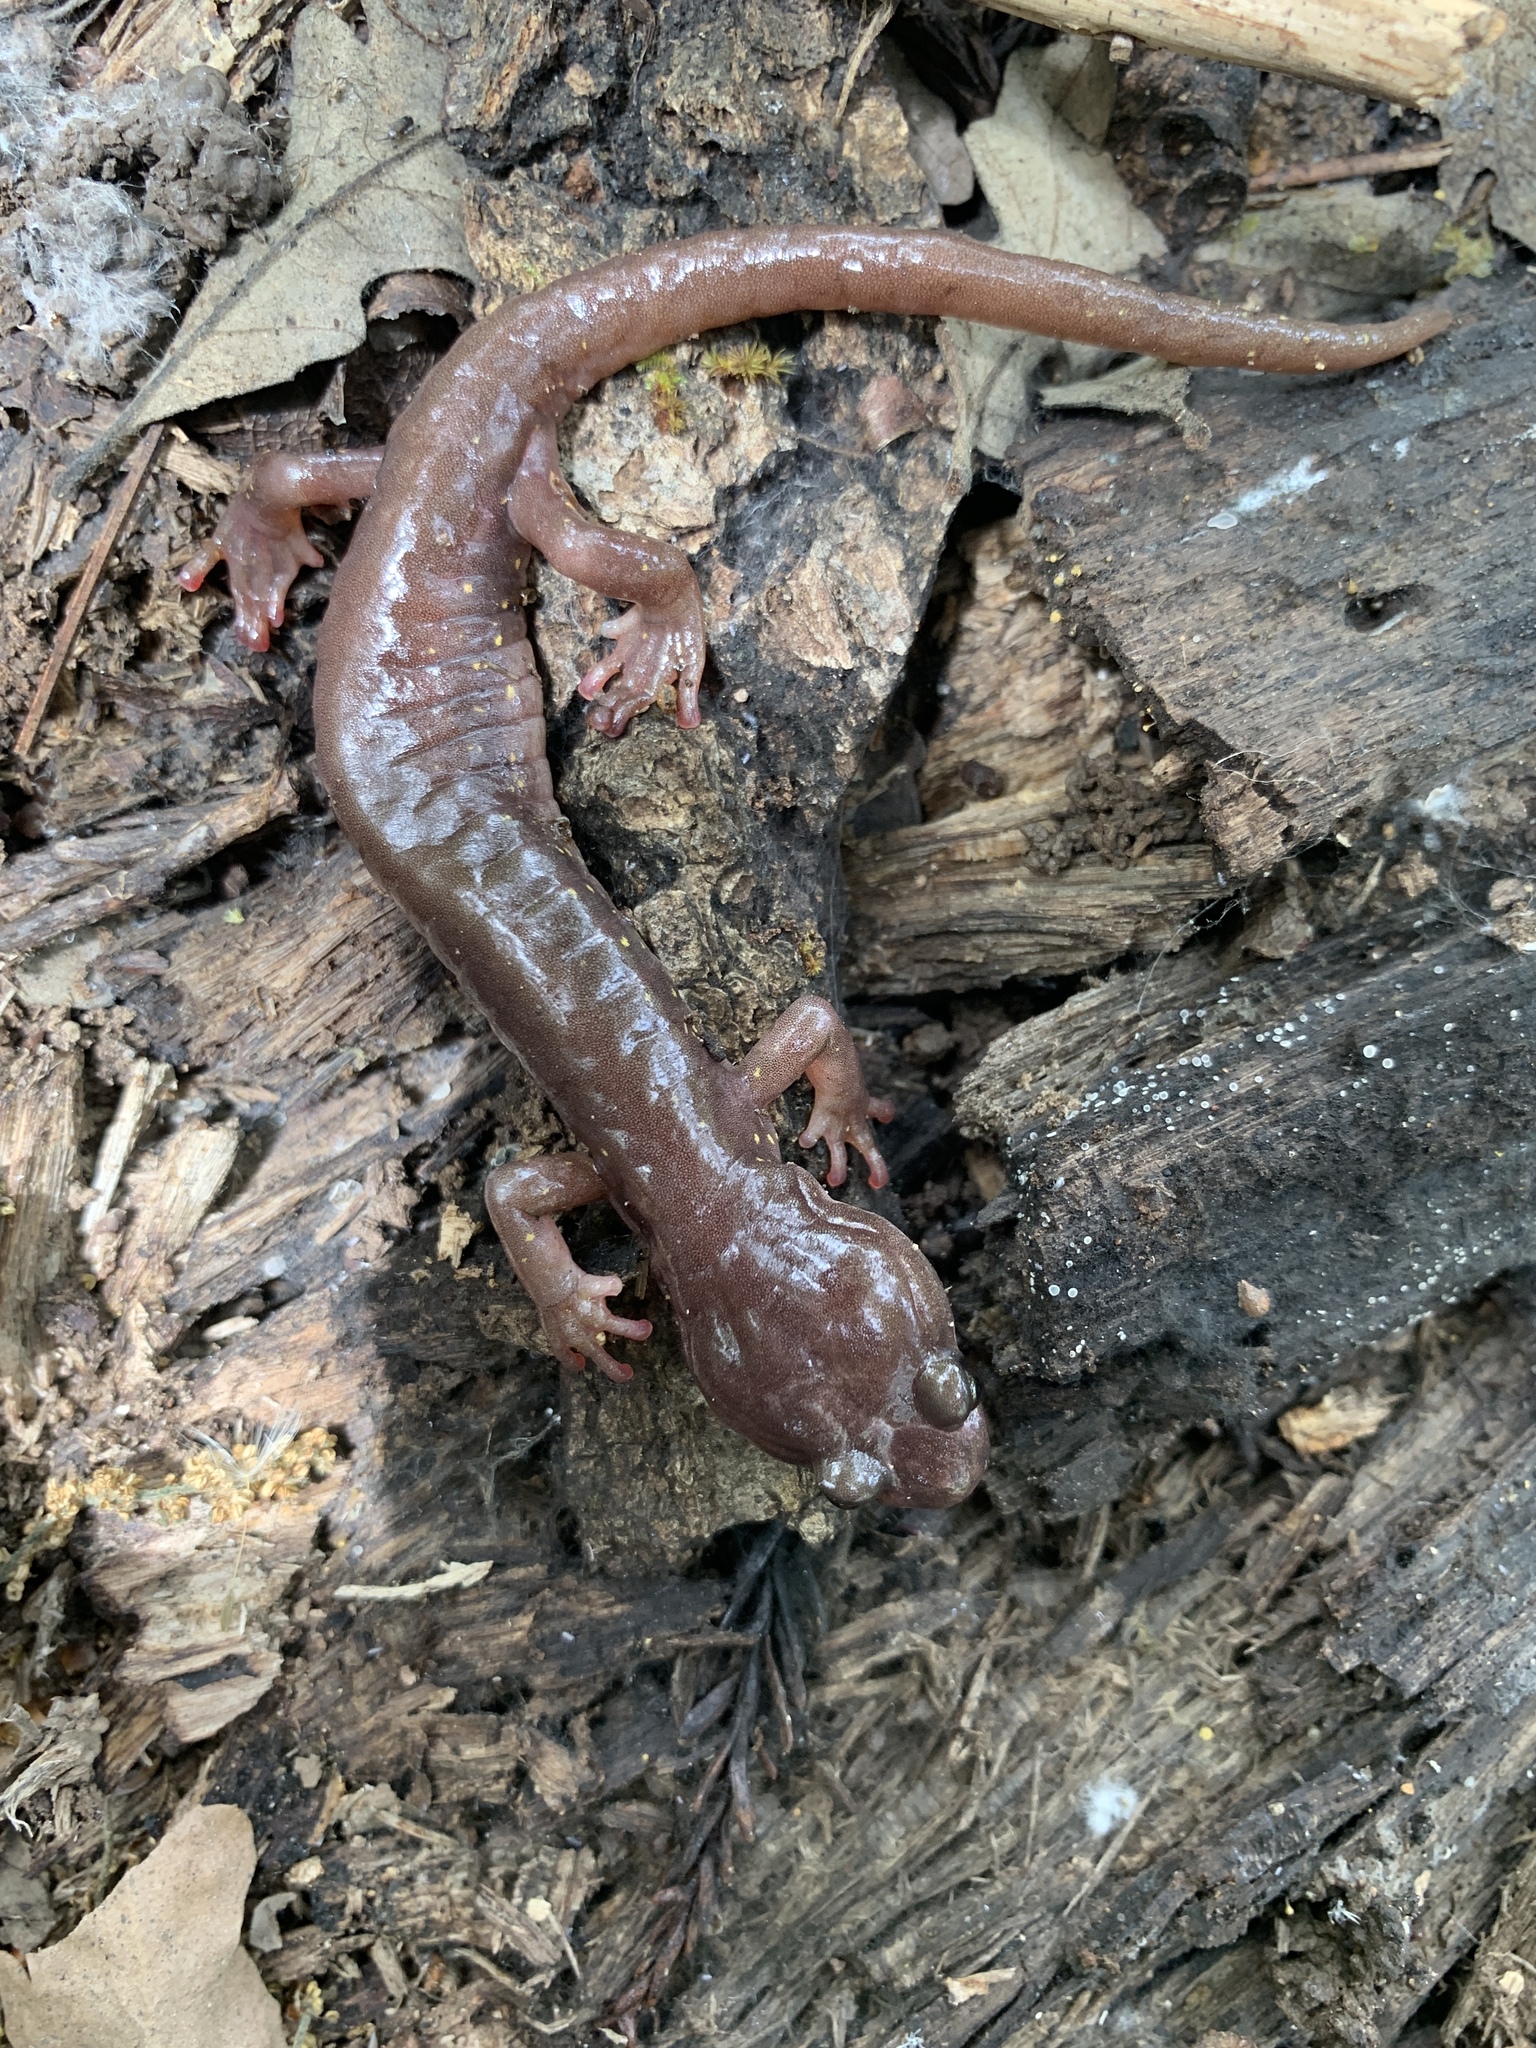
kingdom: Animalia
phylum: Chordata
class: Amphibia
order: Caudata
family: Plethodontidae
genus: Aneides
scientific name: Aneides lugubris
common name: Arboreal salamander
